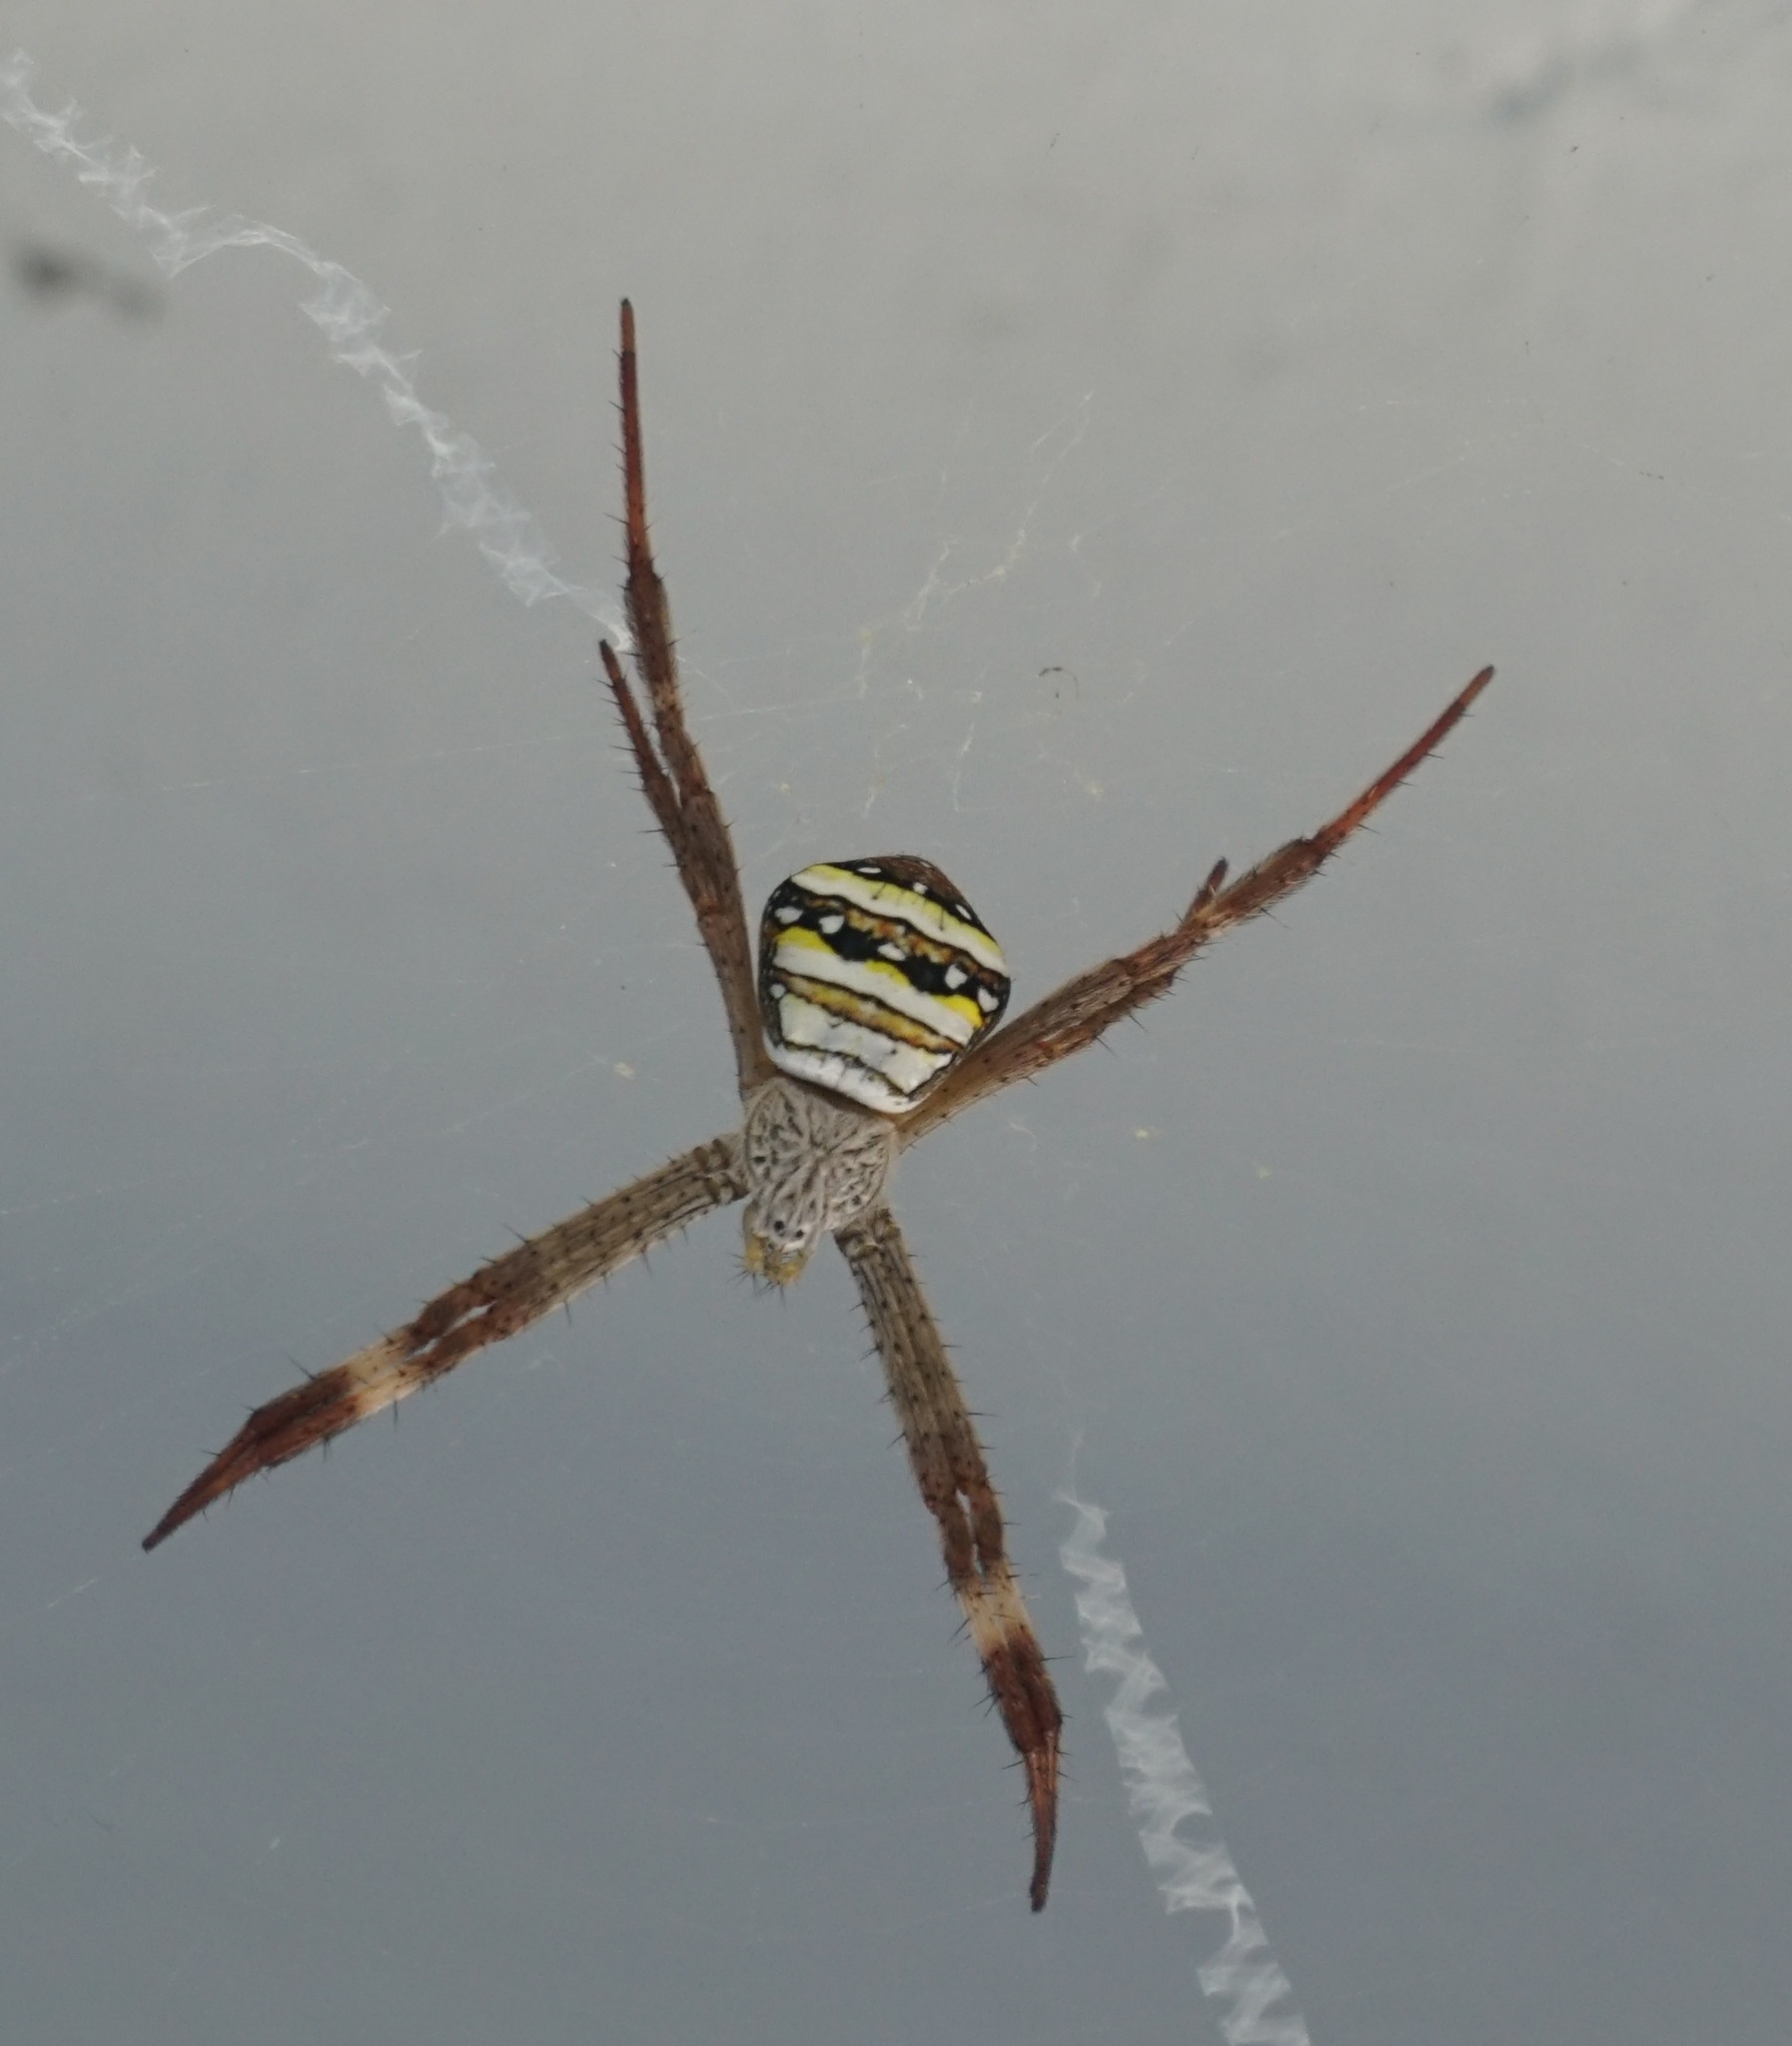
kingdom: Animalia
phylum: Arthropoda
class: Arachnida
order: Araneae
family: Araneidae
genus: Argiope
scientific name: Argiope aetherea
